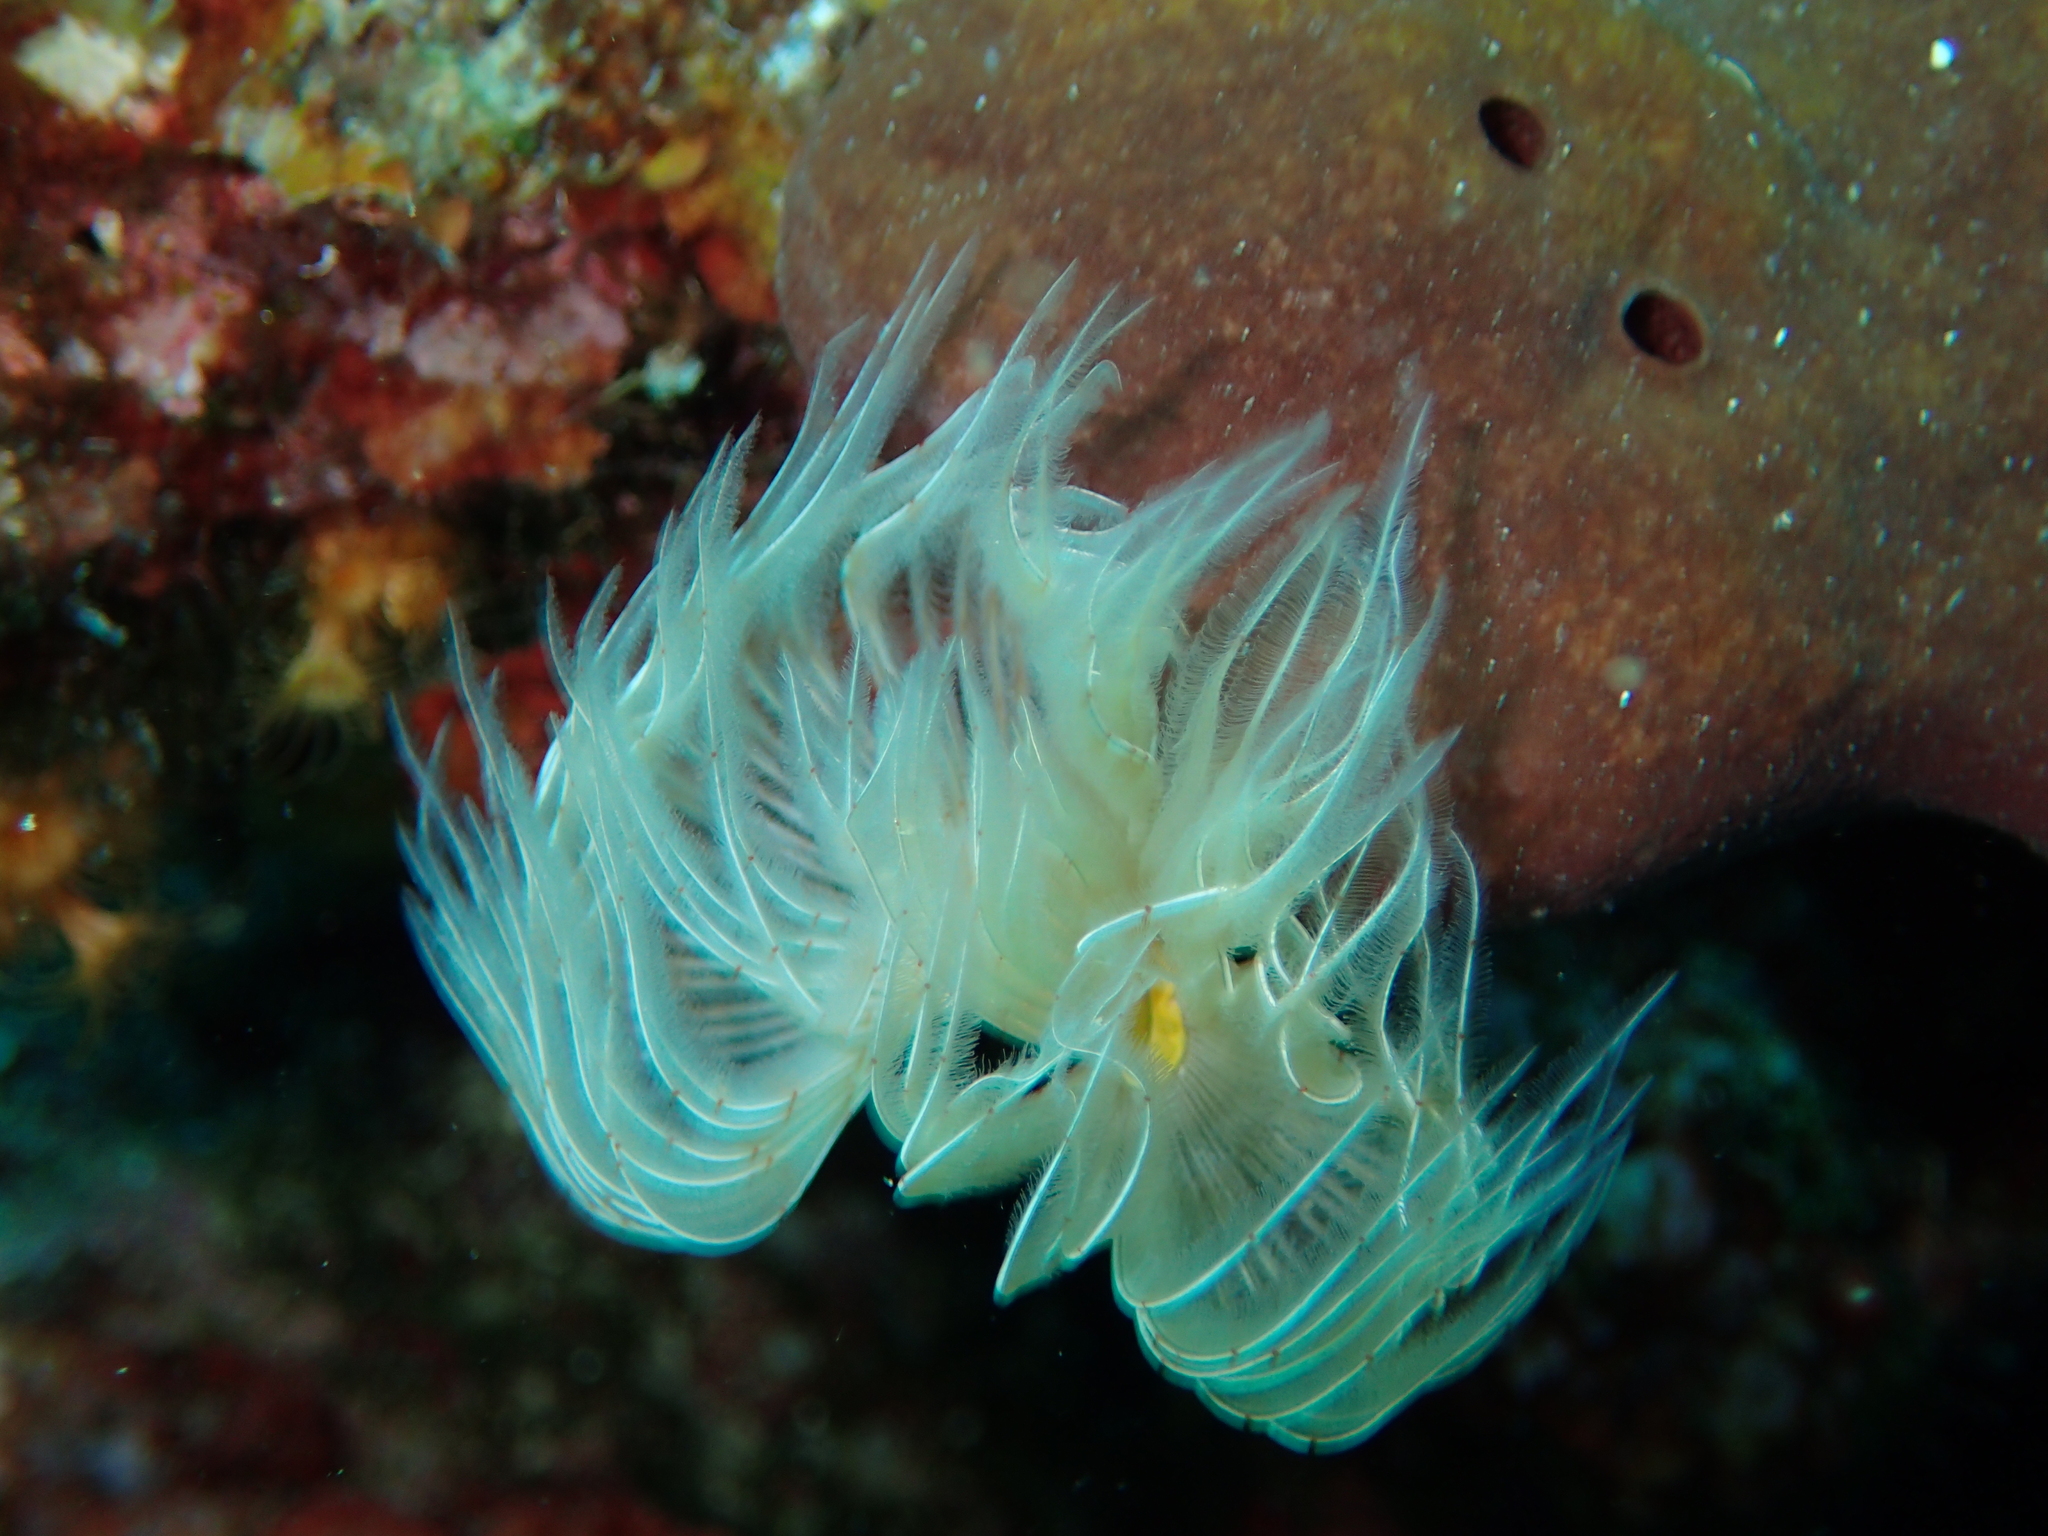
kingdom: Animalia
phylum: Annelida
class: Polychaeta
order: Sabellida
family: Serpulidae
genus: Protula
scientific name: Protula tubularia
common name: Red-spotted horseshoe
